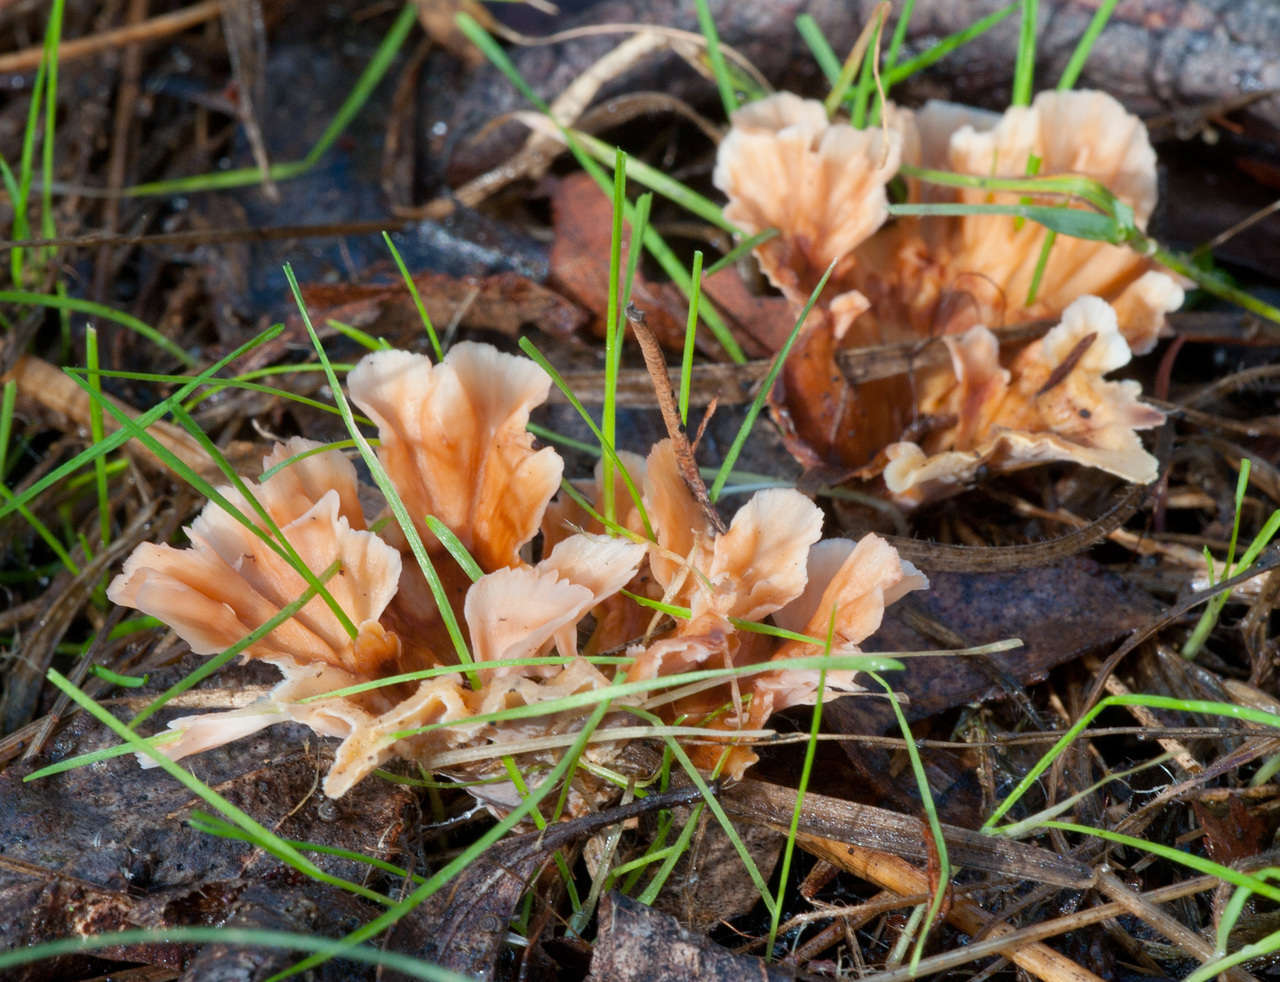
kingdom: Fungi
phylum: Basidiomycota
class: Agaricomycetes
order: Polyporales
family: Podoscyphaceae
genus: Podoscypha
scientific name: Podoscypha petalodes
